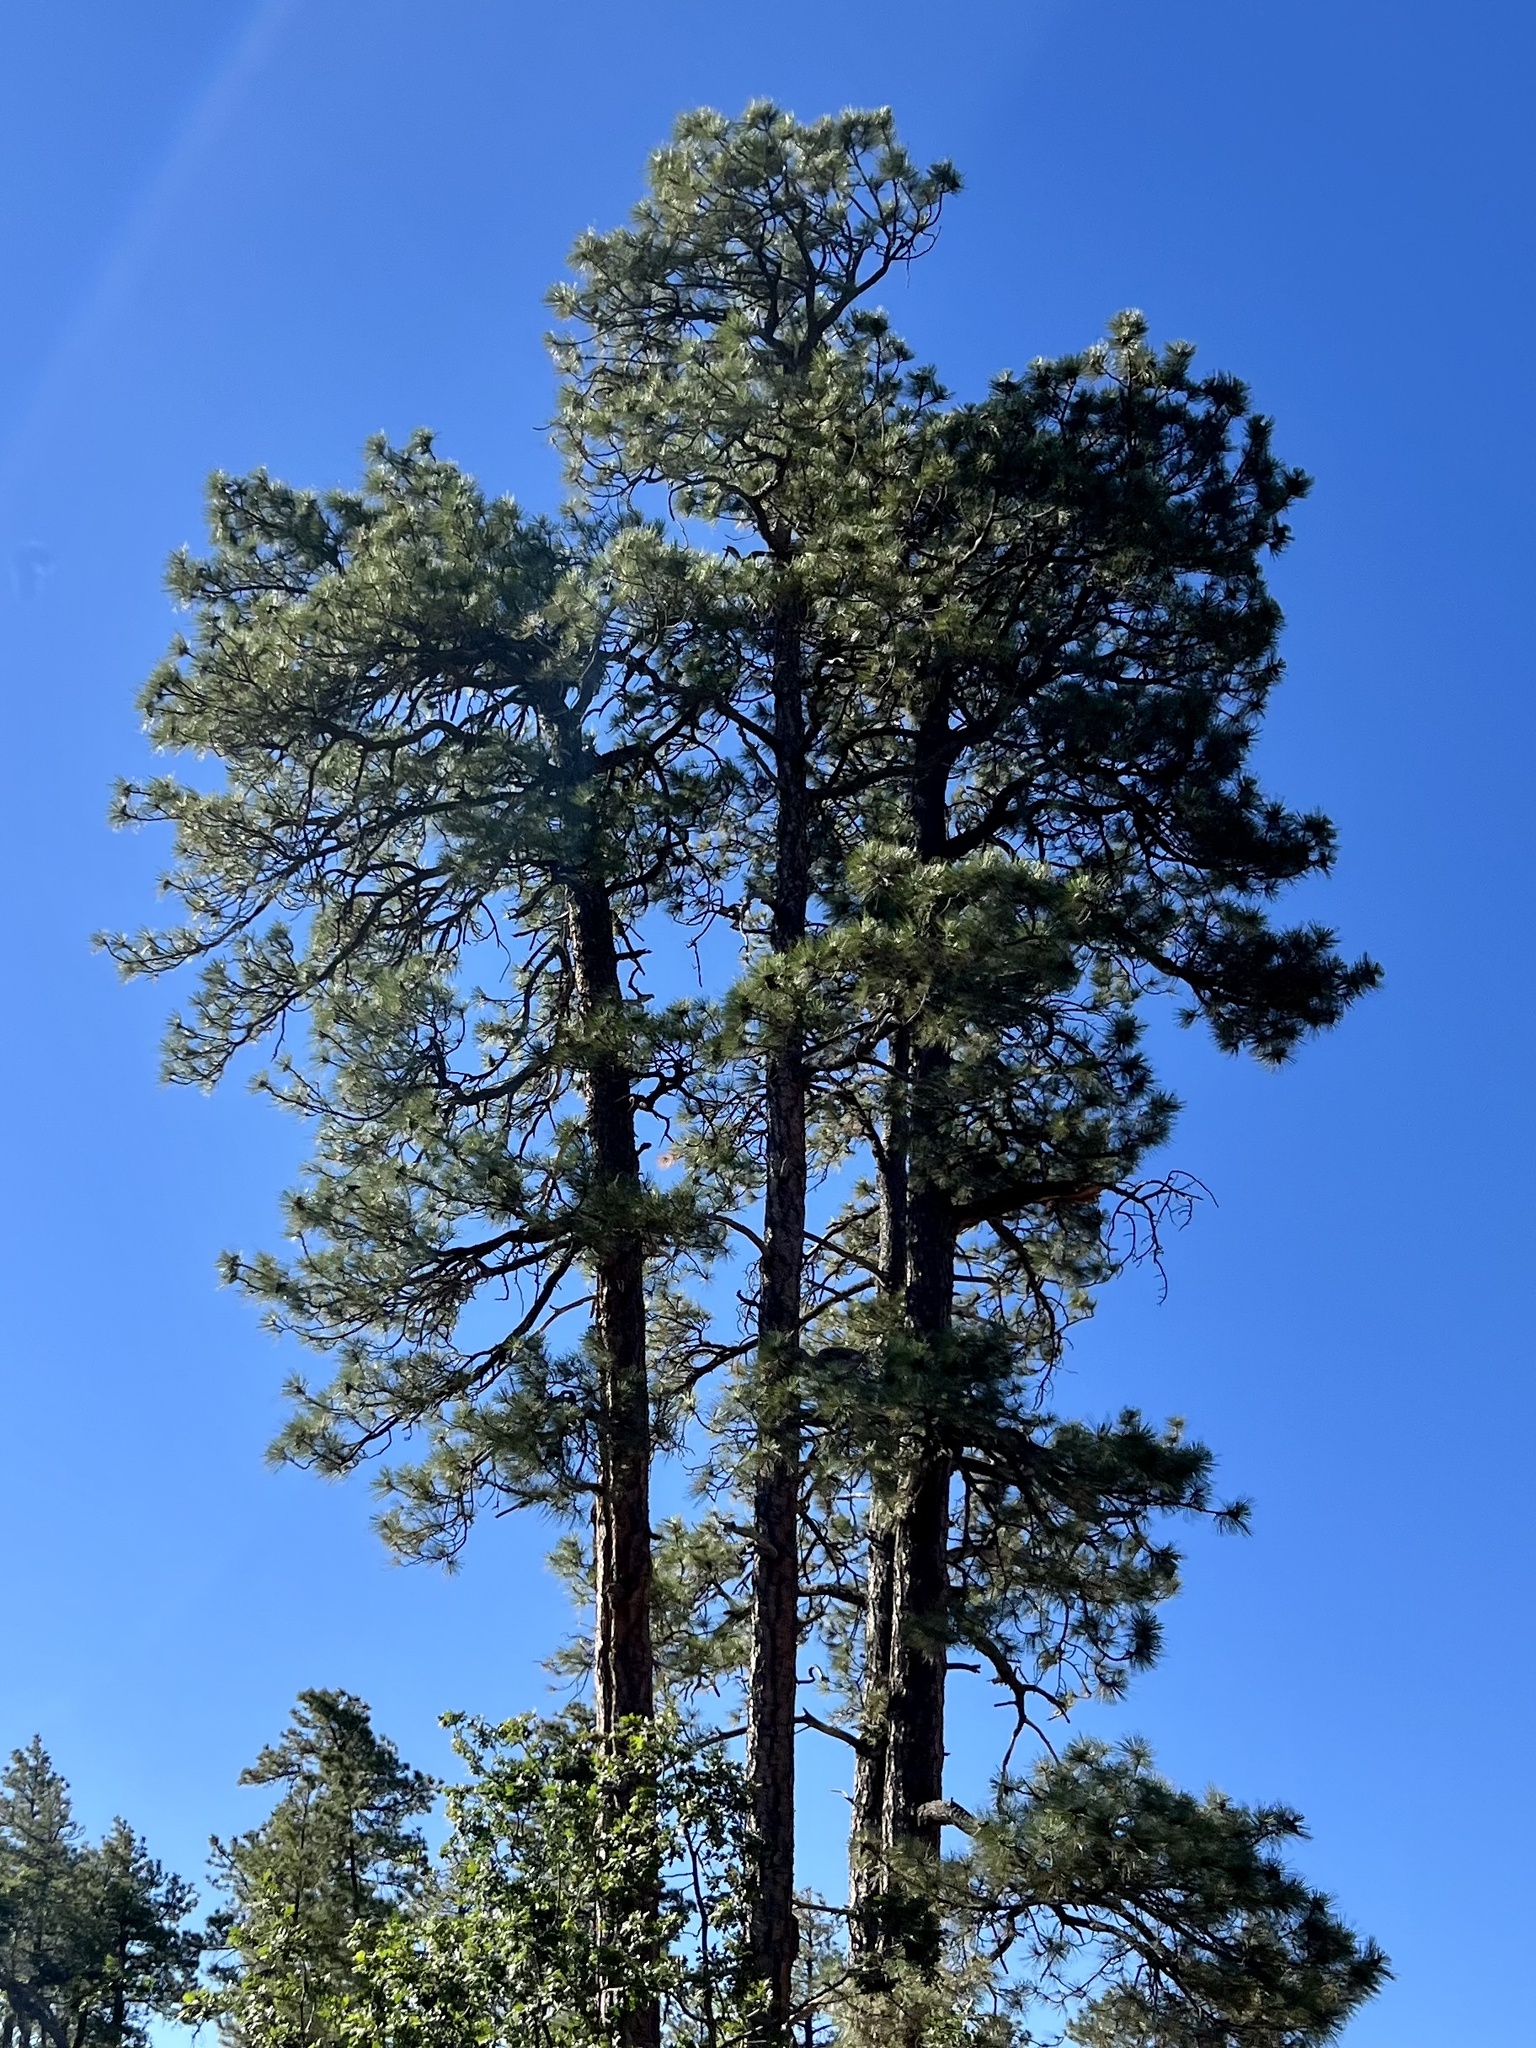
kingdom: Plantae
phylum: Tracheophyta
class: Pinopsida
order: Pinales
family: Pinaceae
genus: Pinus
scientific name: Pinus ponderosa
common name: Western yellow-pine
